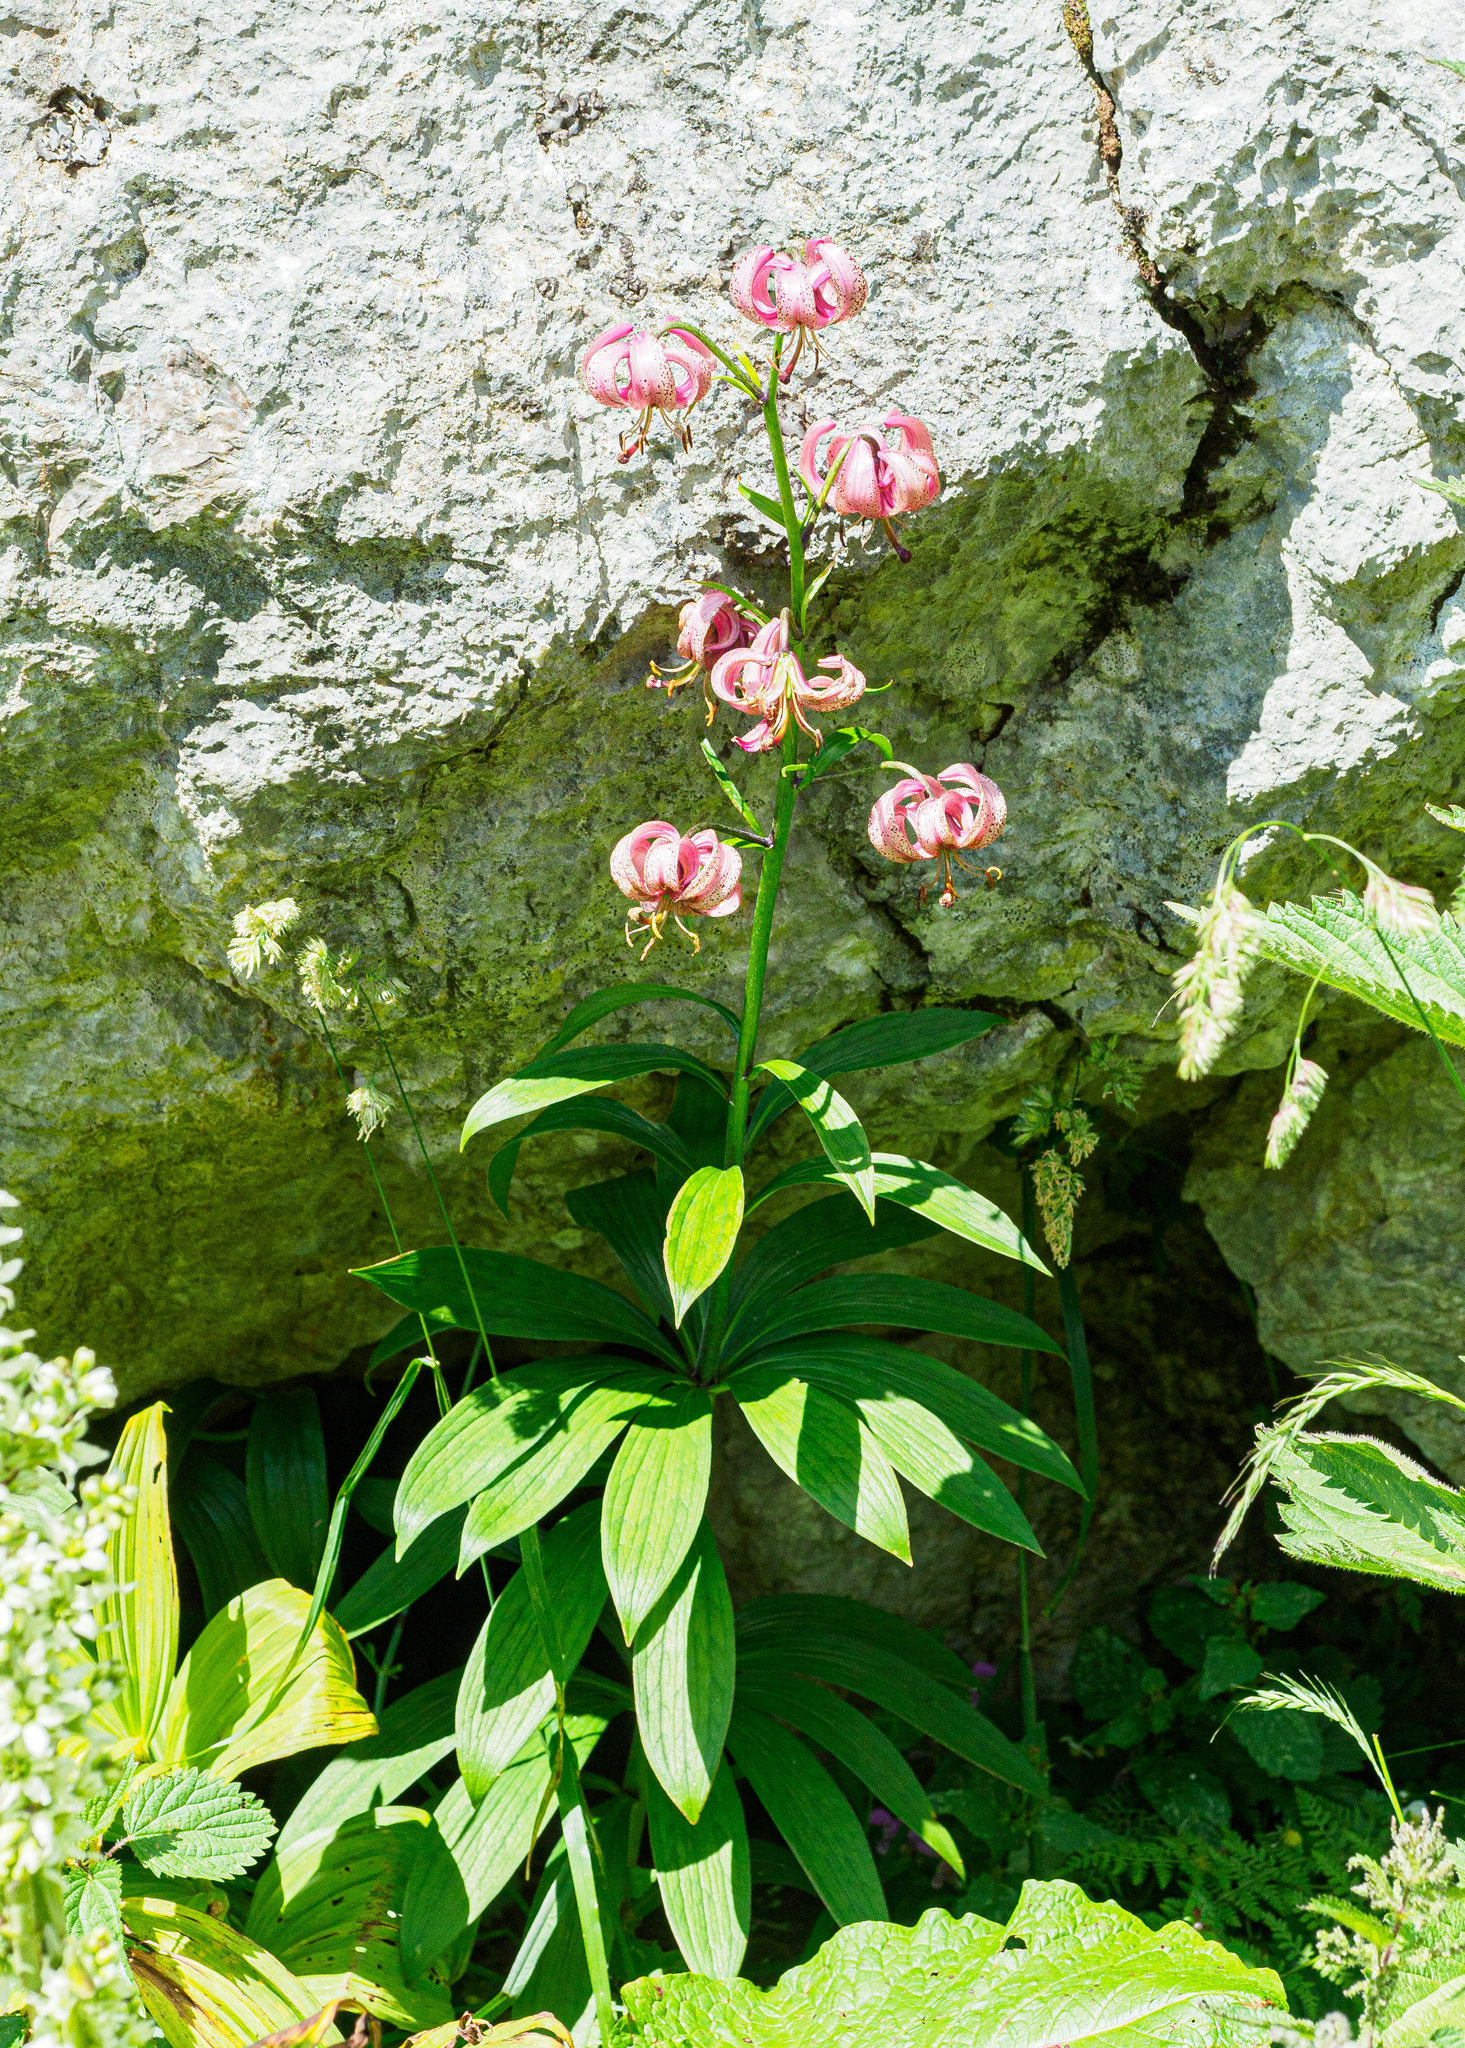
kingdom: Plantae
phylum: Tracheophyta
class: Liliopsida
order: Liliales
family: Liliaceae
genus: Lilium
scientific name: Lilium martagon
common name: Martagon lily
